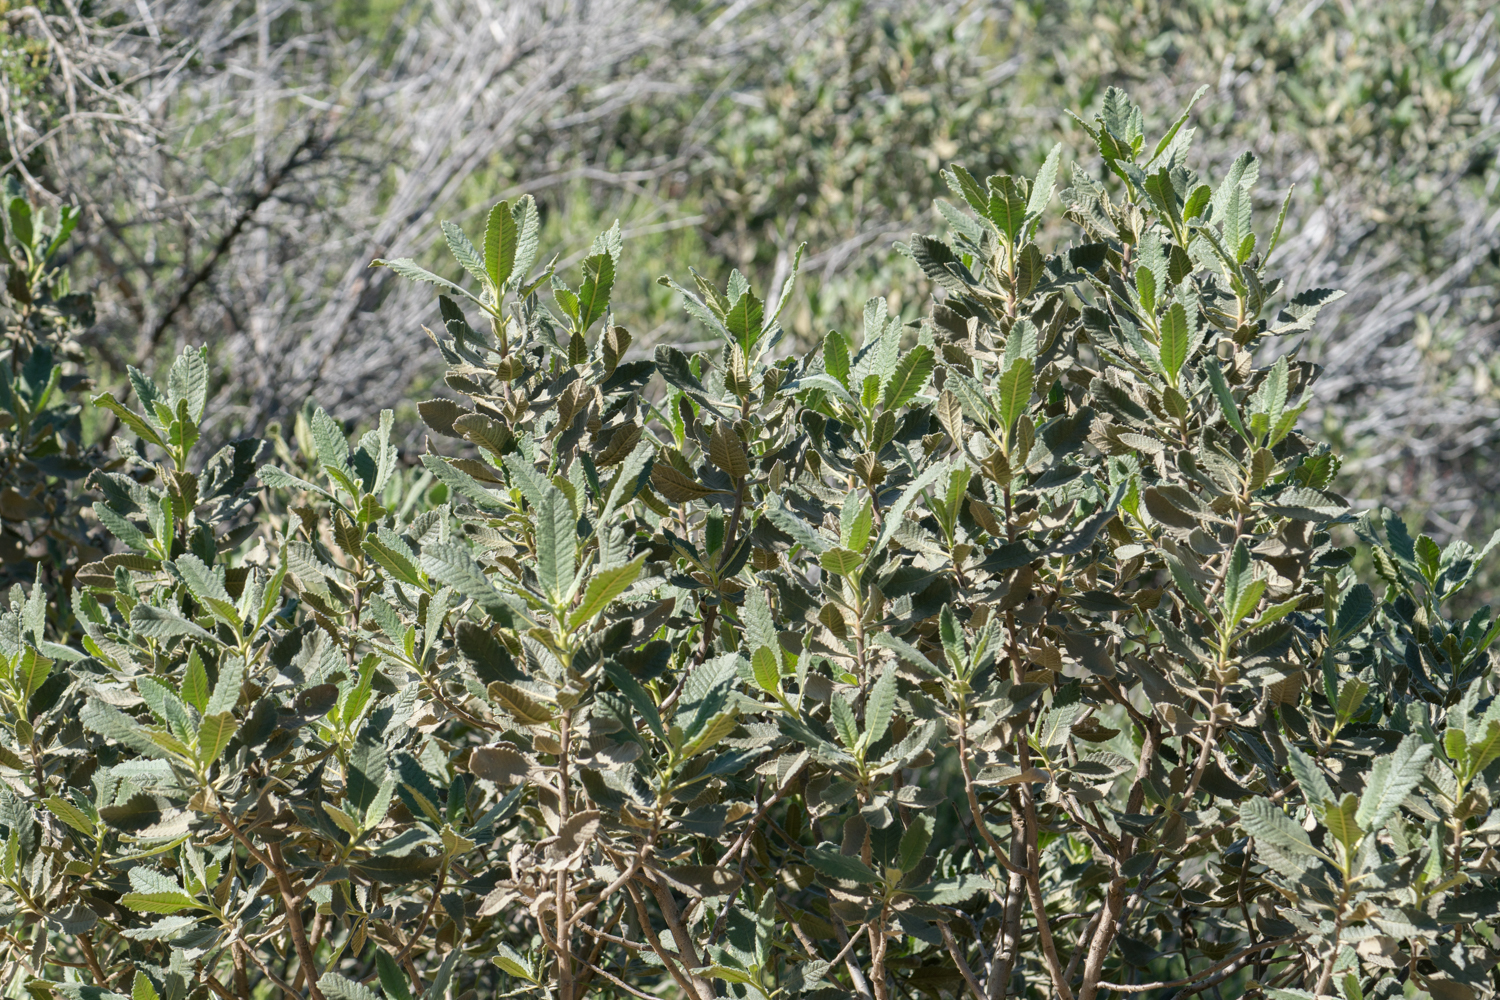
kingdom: Plantae
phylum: Tracheophyta
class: Magnoliopsida
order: Boraginales
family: Namaceae
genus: Eriodictyon
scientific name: Eriodictyon crassifolium
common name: Thick-leaf yerba-santa
